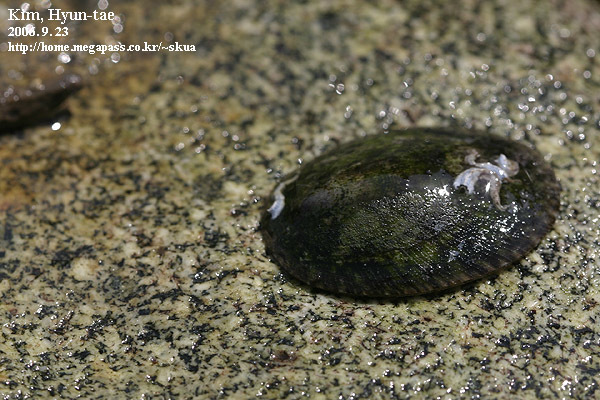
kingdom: Animalia
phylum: Mollusca
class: Gastropoda
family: Lottiidae
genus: Nipponacmea
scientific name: Nipponacmea schrenckii
